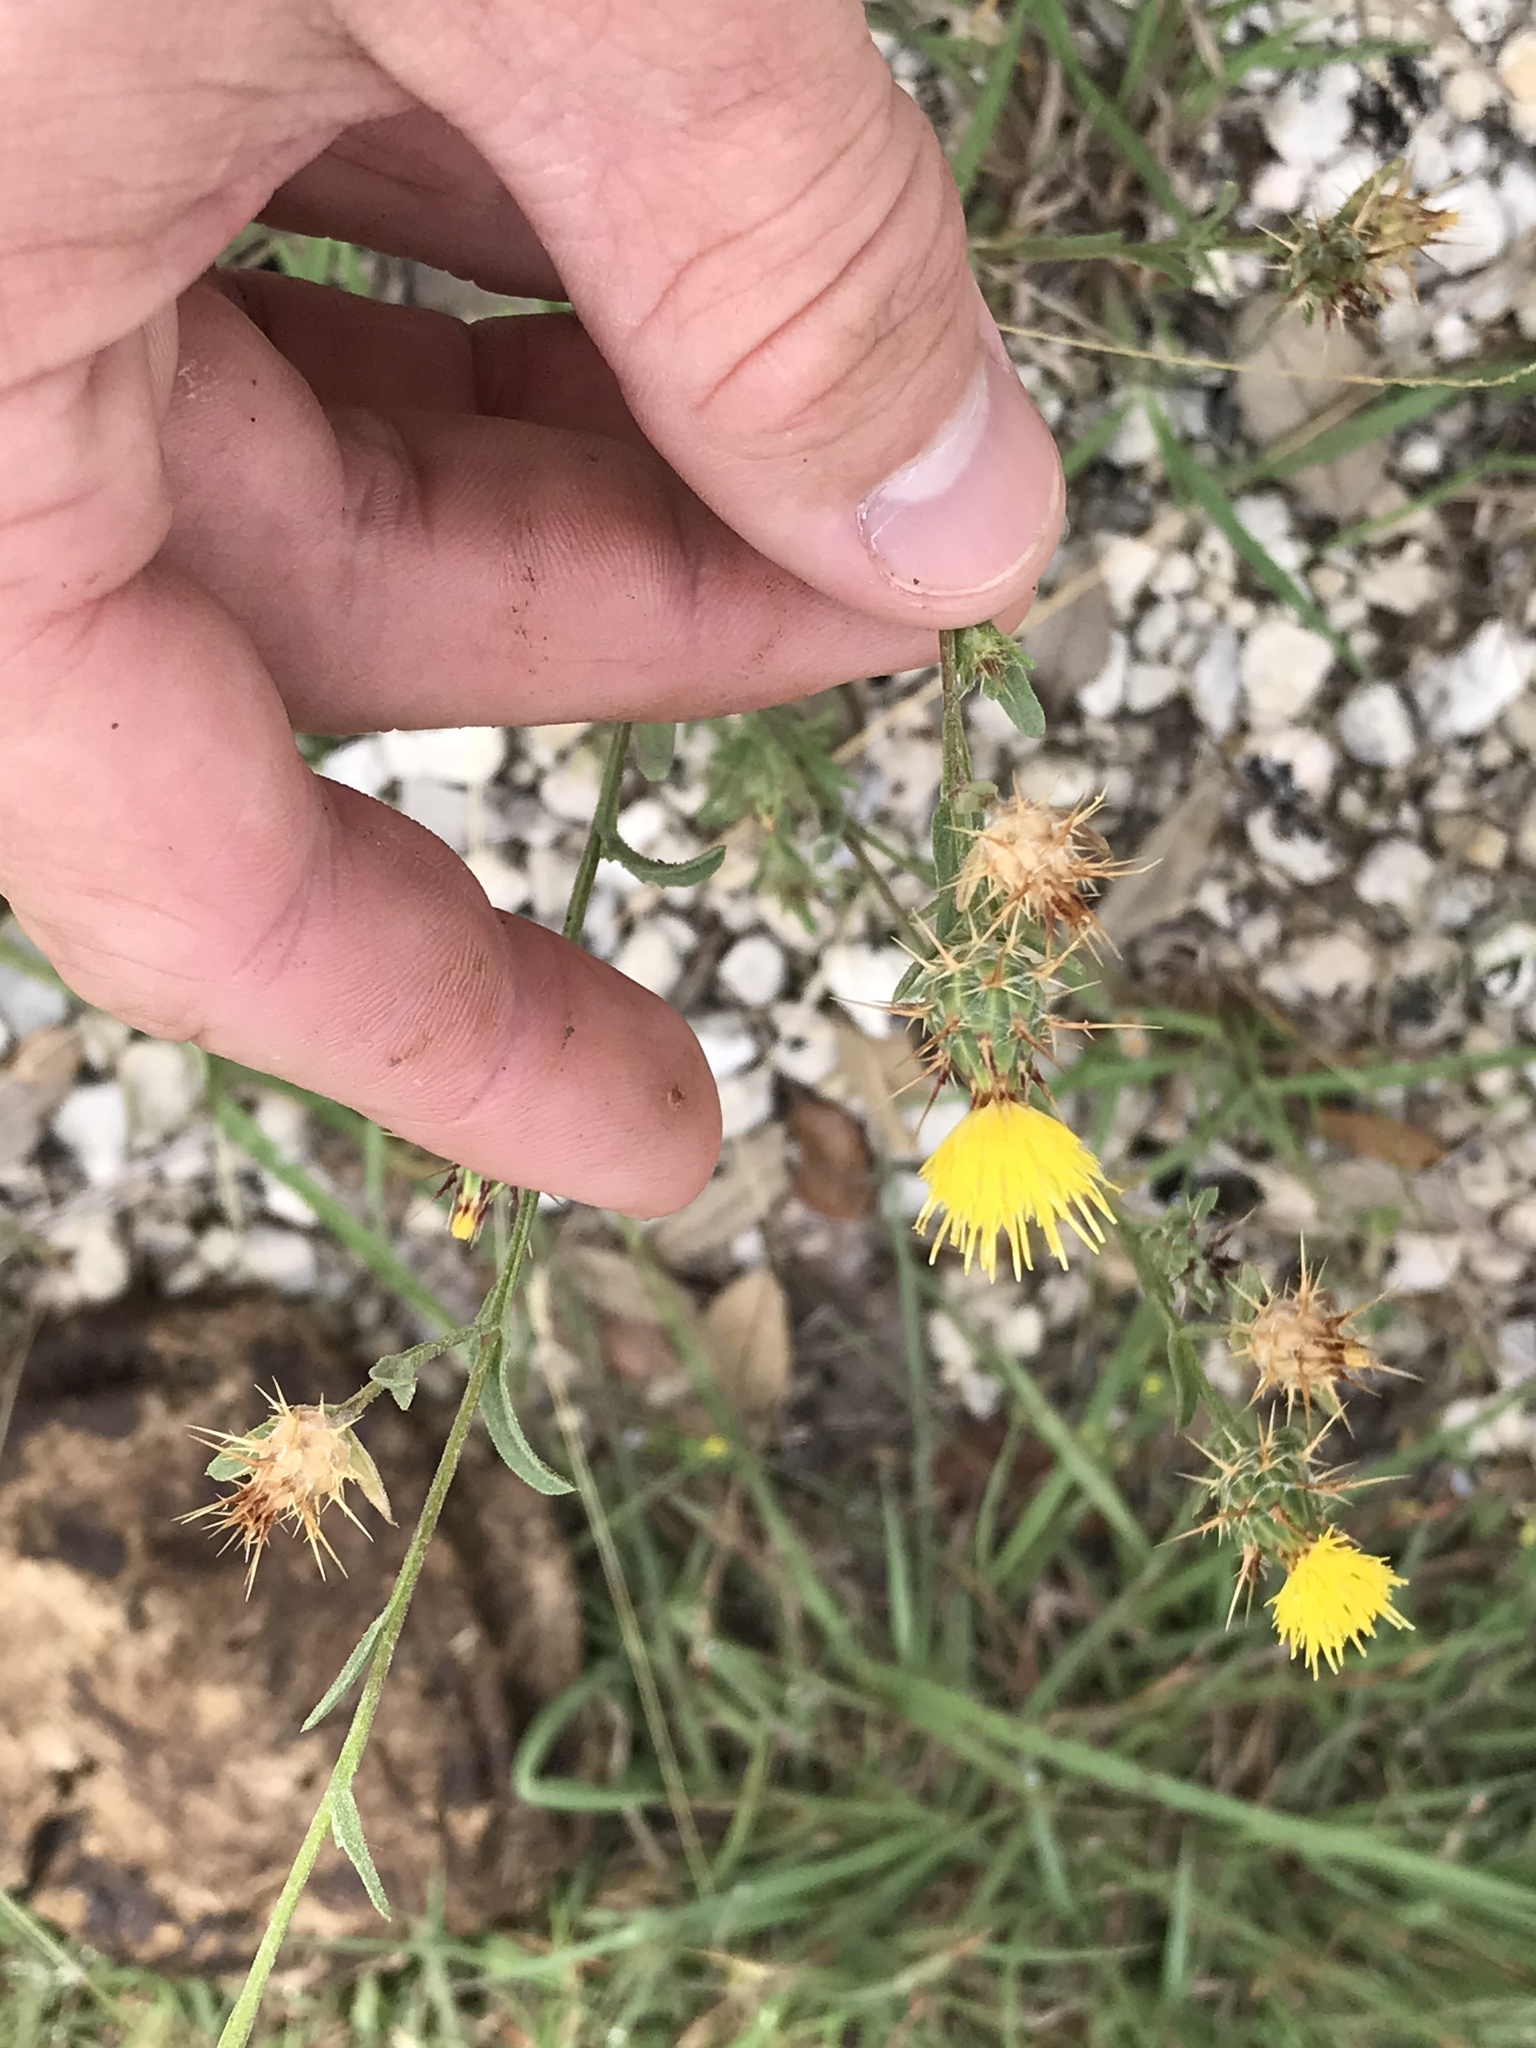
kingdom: Plantae
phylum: Tracheophyta
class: Magnoliopsida
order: Asterales
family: Asteraceae
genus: Centaurea
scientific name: Centaurea melitensis
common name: Maltese star-thistle
